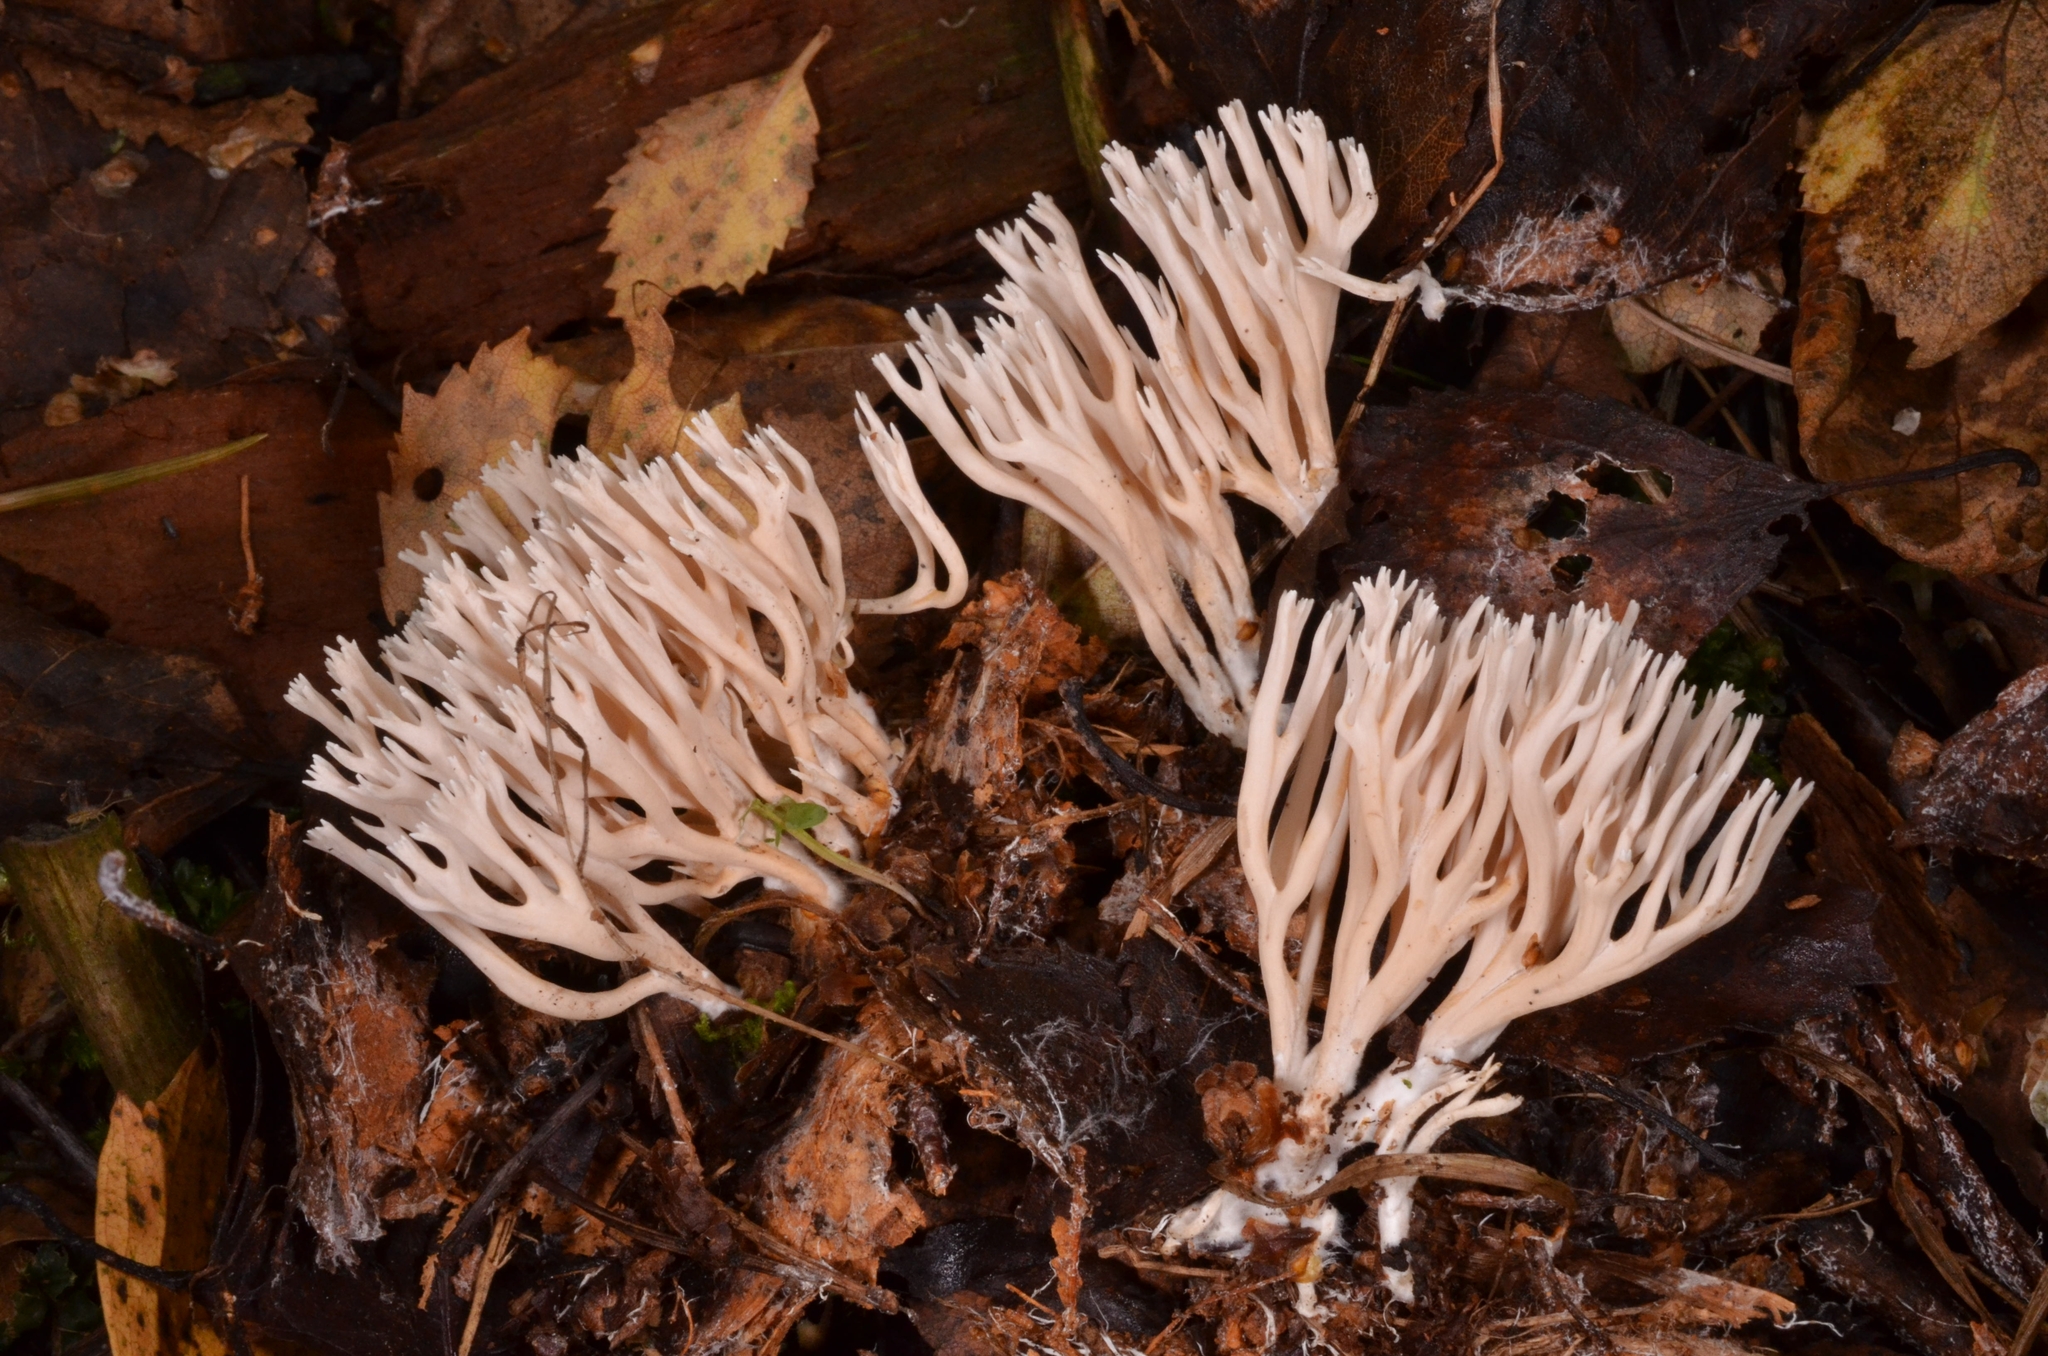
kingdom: Fungi
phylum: Basidiomycota
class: Agaricomycetes
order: Gomphales
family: Gomphaceae
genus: Ramaria
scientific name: Ramaria gracilis
